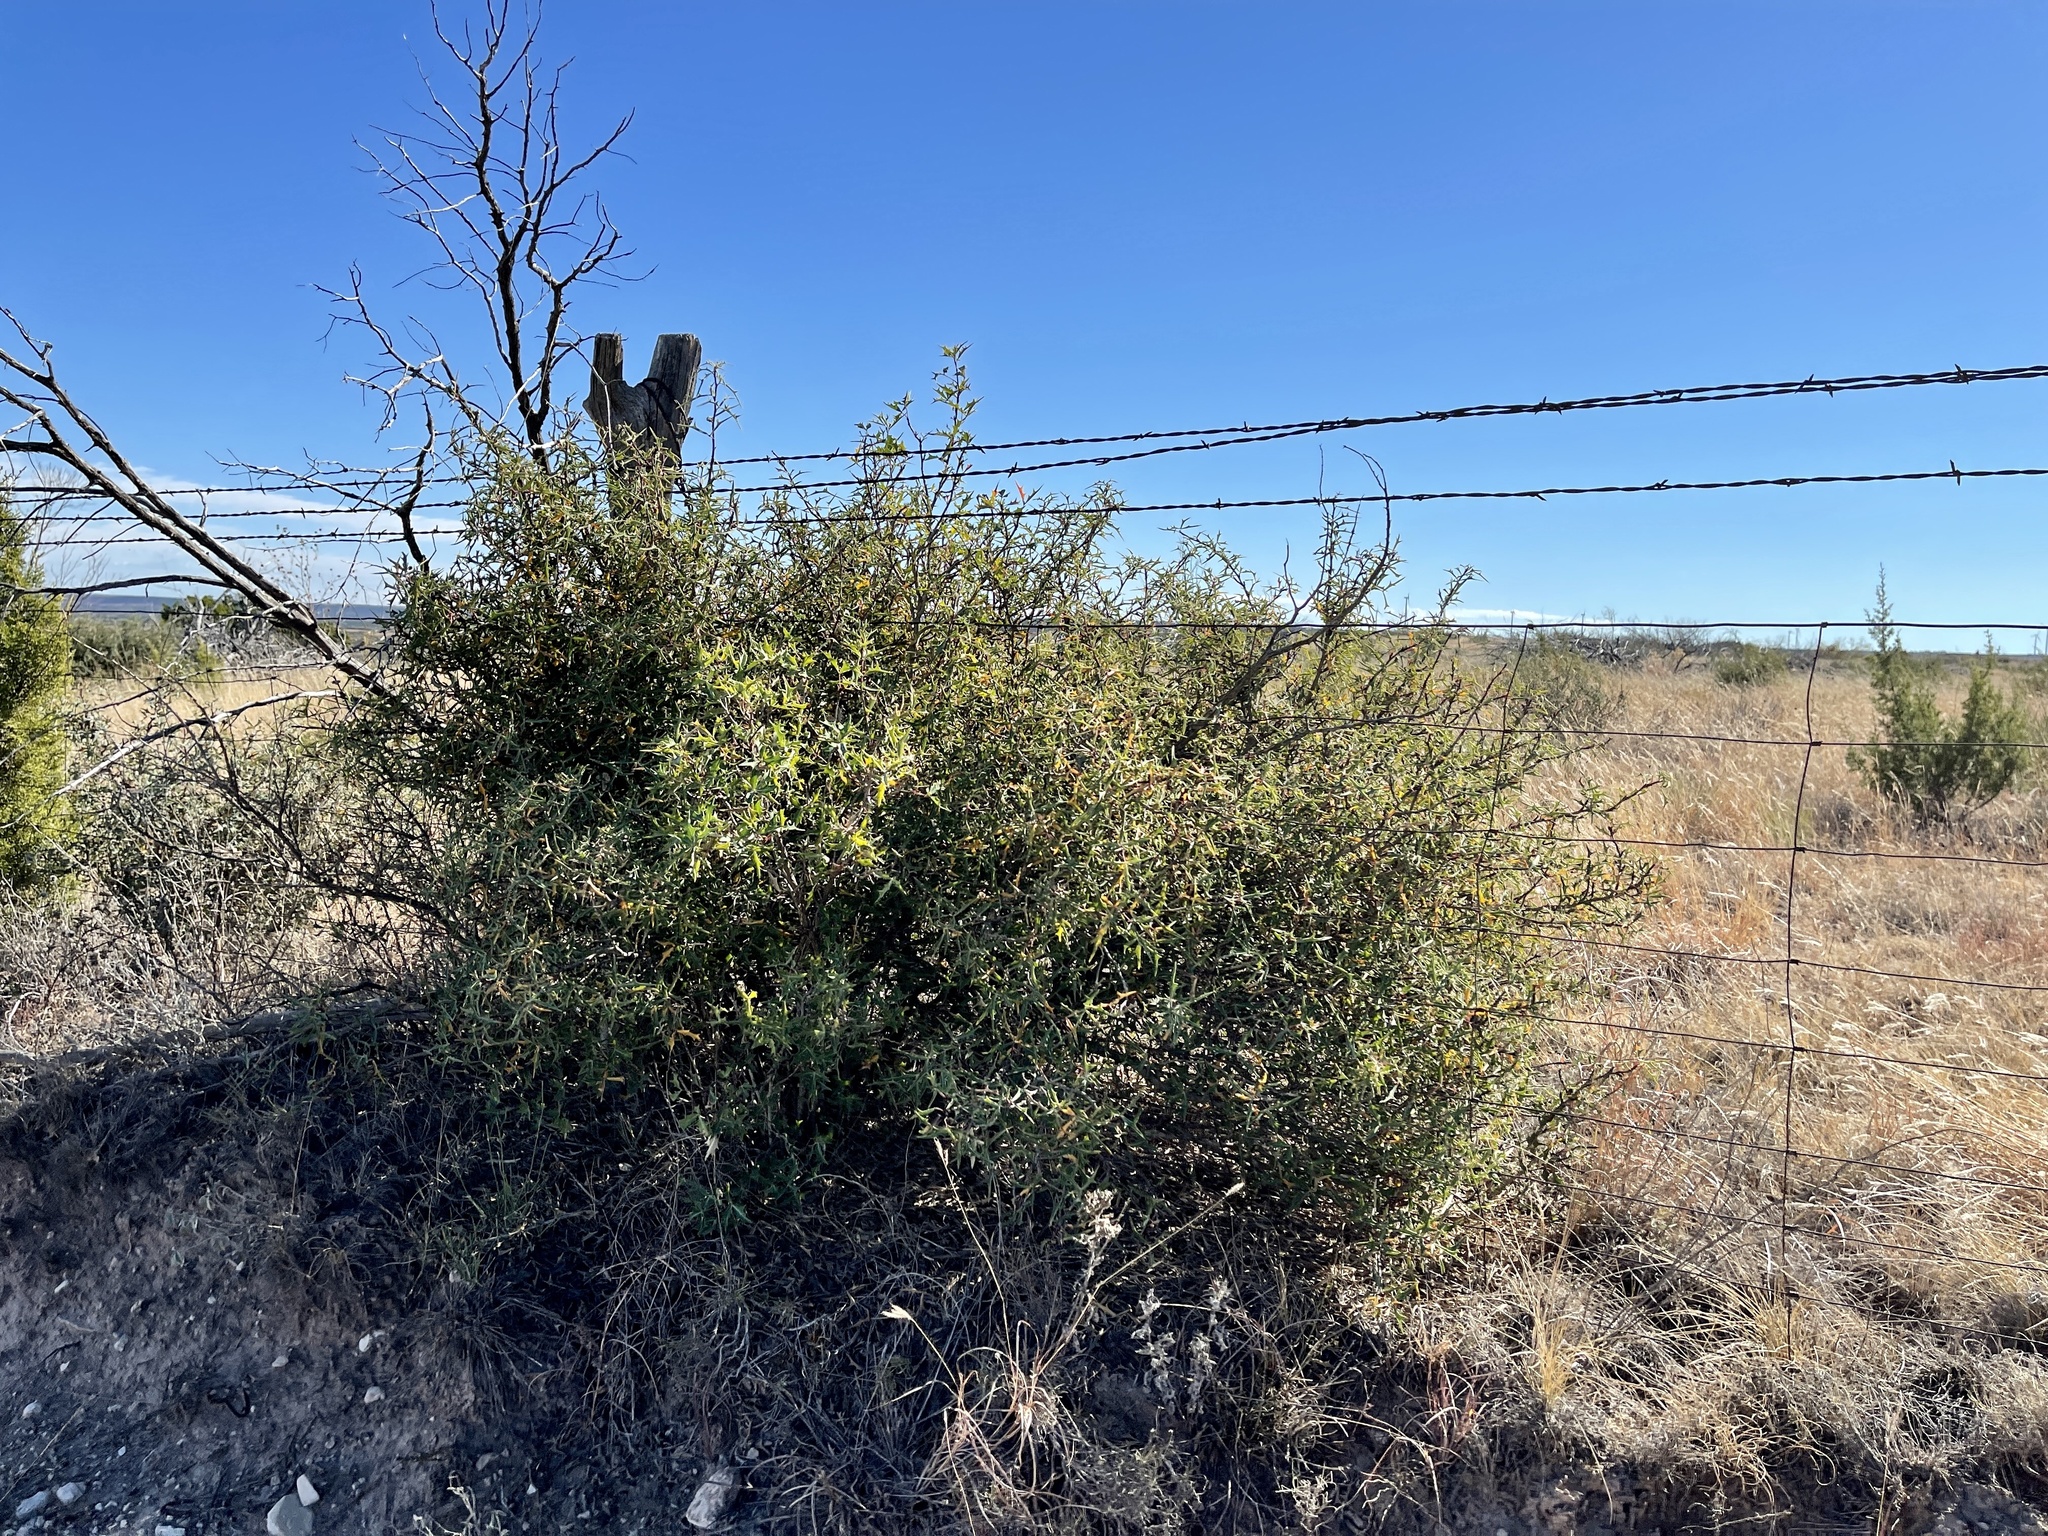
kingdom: Plantae
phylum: Tracheophyta
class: Magnoliopsida
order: Ranunculales
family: Berberidaceae
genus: Alloberberis
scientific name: Alloberberis trifoliolata
